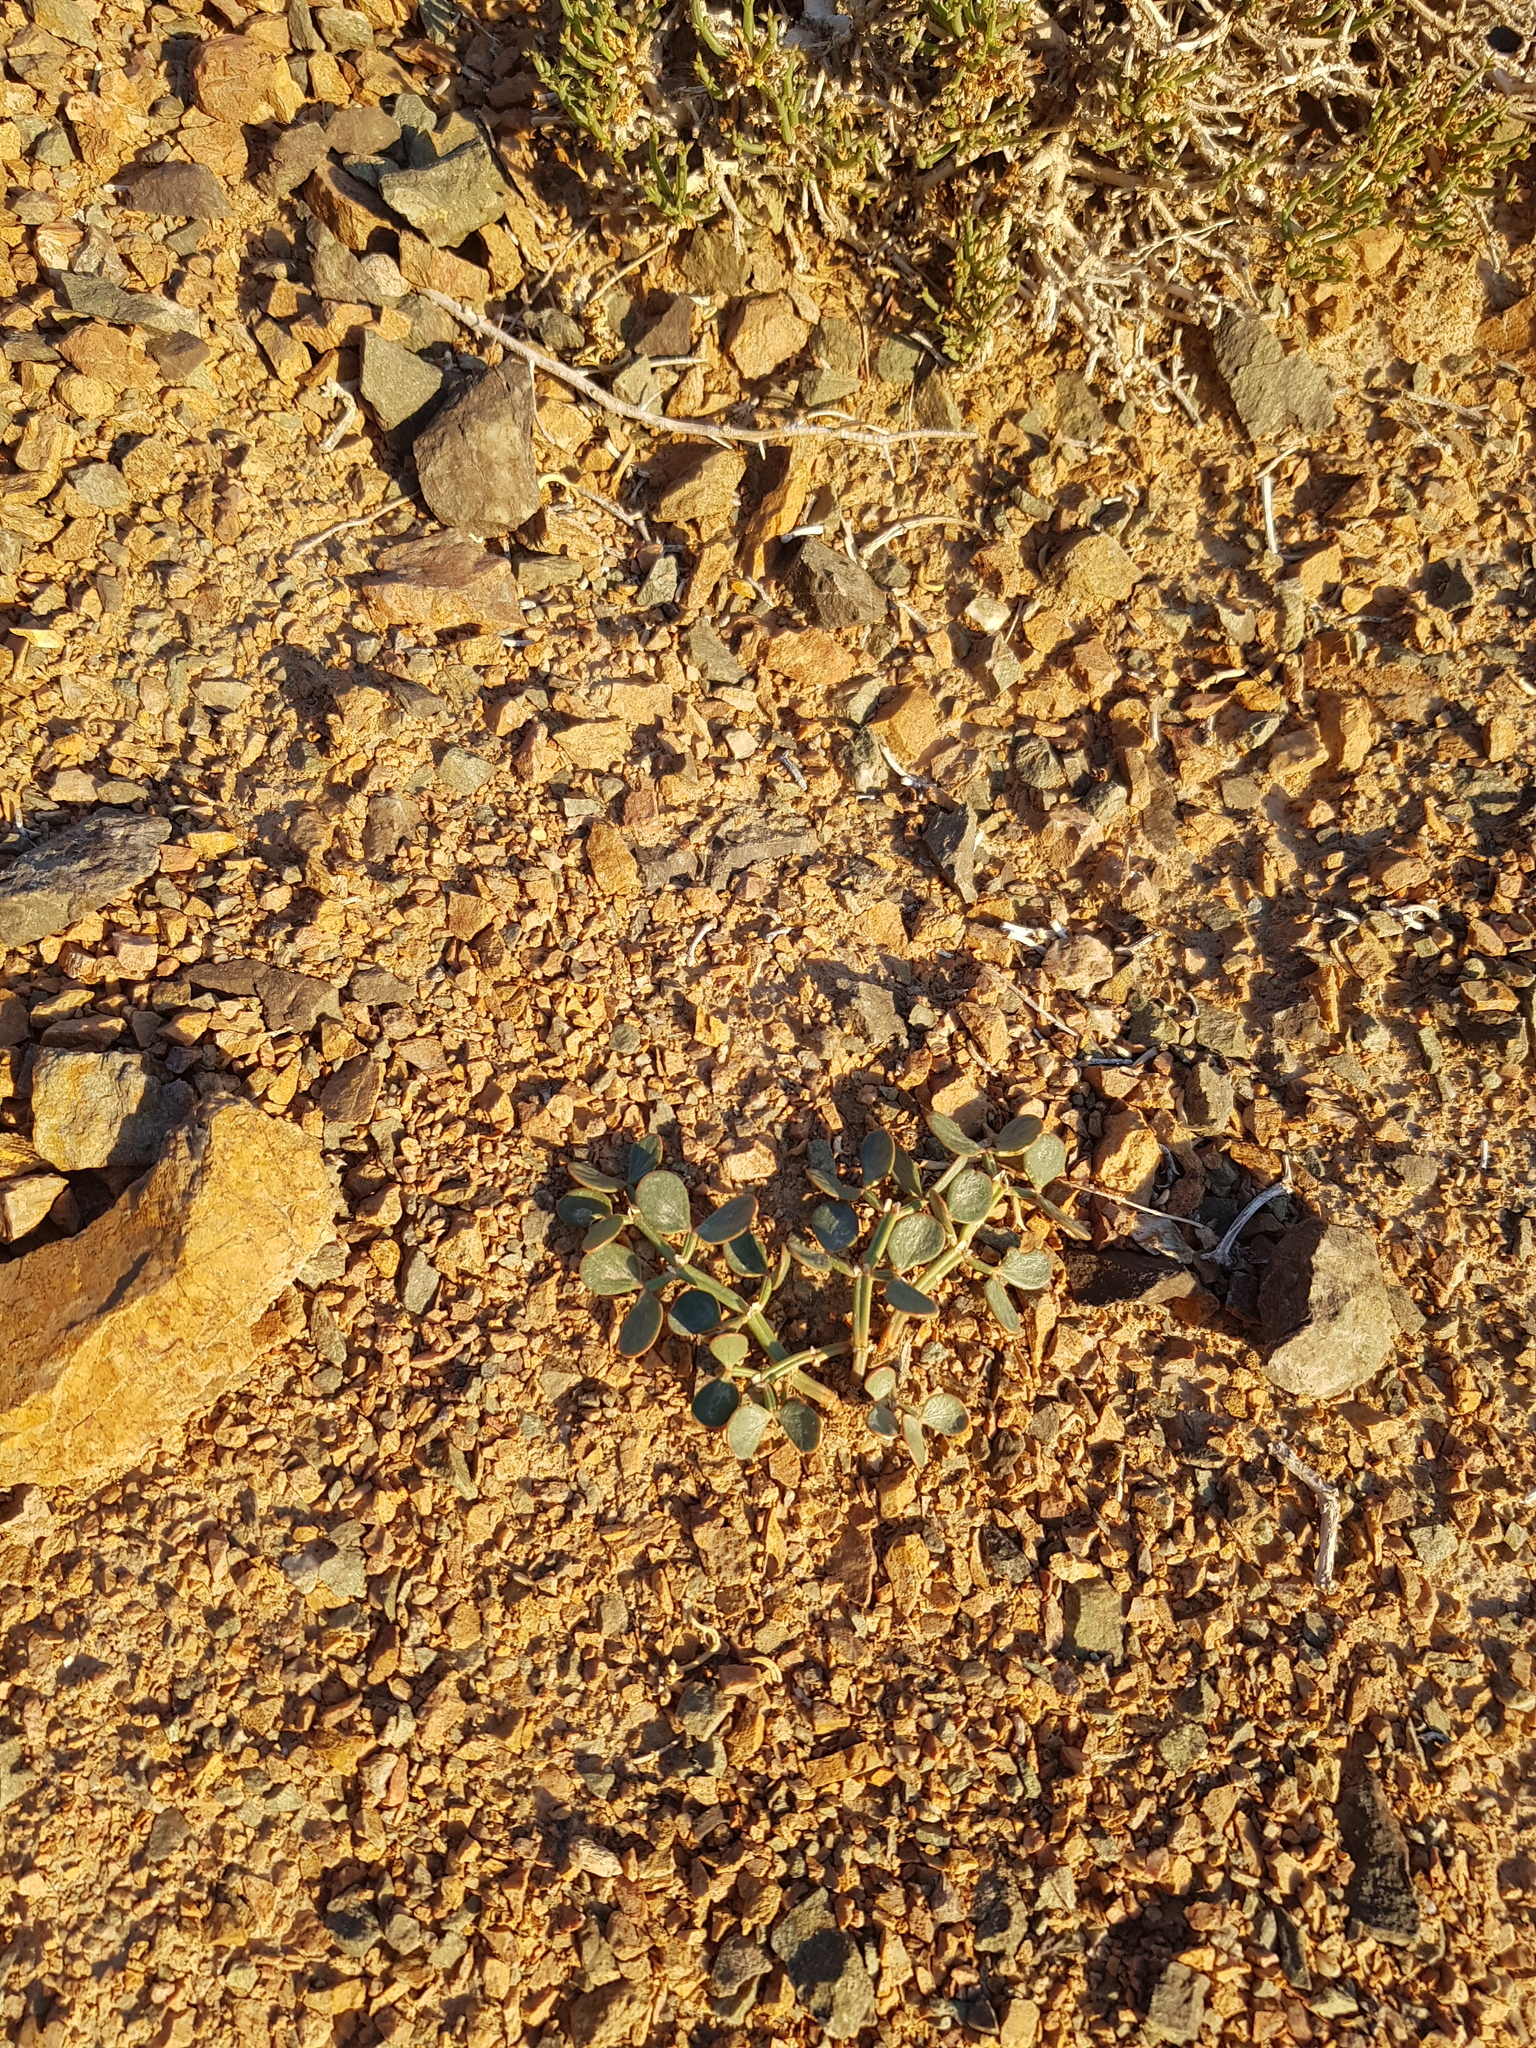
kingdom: Plantae
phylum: Tracheophyta
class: Magnoliopsida
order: Zygophyllales
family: Zygophyllaceae
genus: Zygophyllum
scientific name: Zygophyllum gobicum
